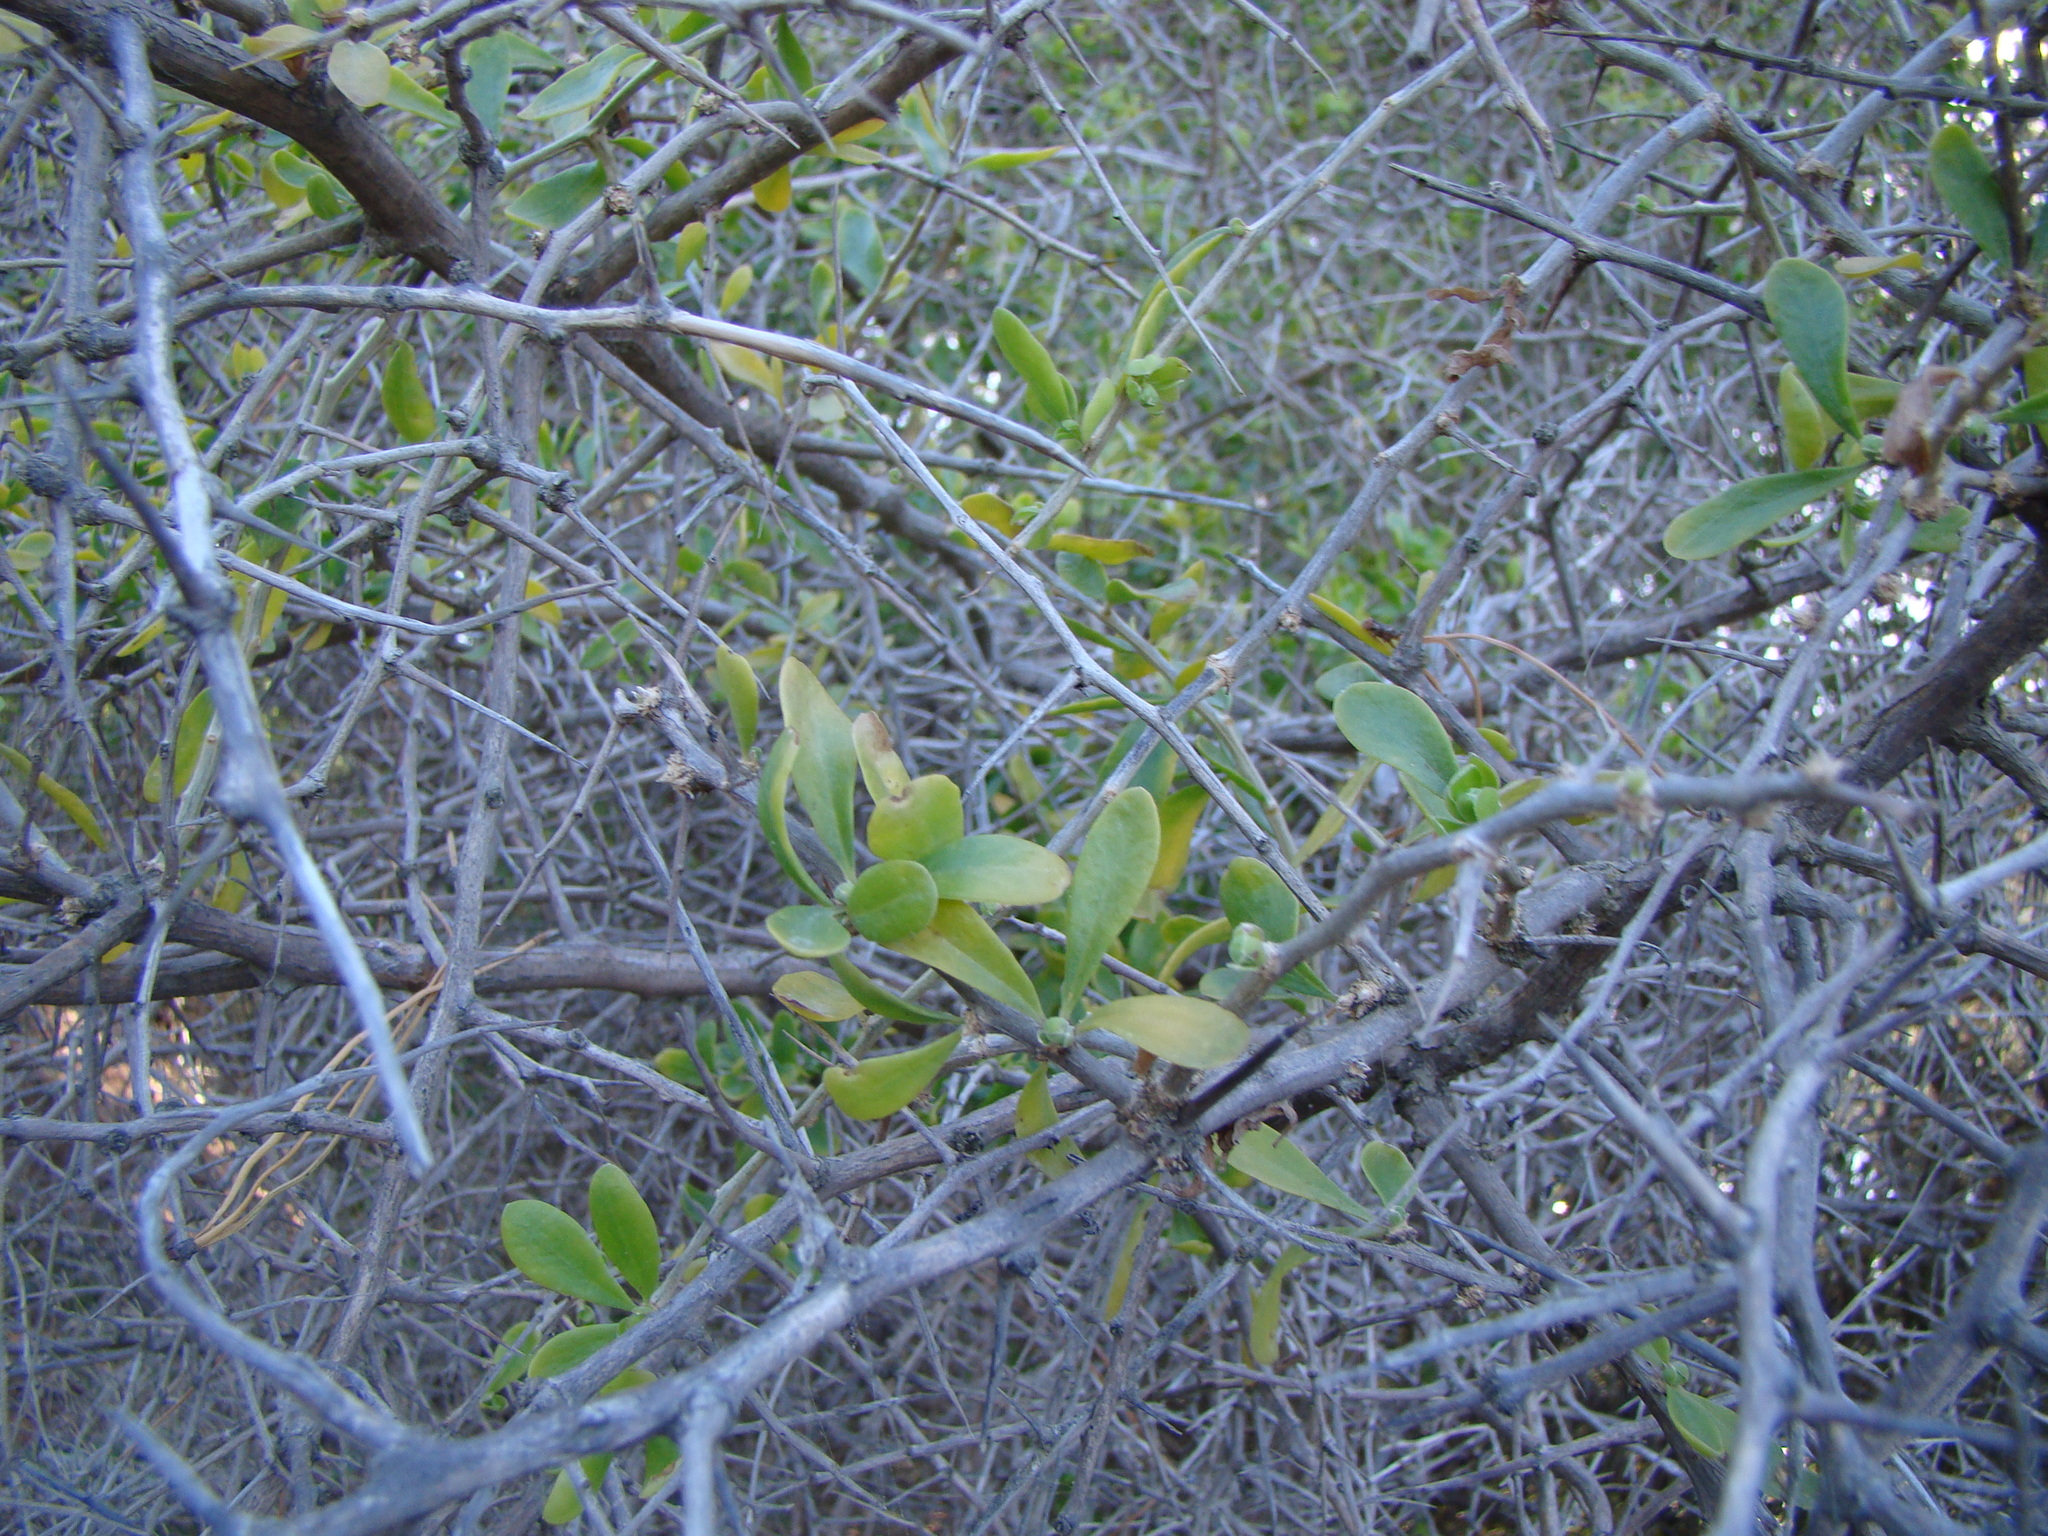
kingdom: Plantae
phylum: Tracheophyta
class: Magnoliopsida
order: Solanales
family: Solanaceae
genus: Lycium
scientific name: Lycium ferocissimum
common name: African boxthorn
